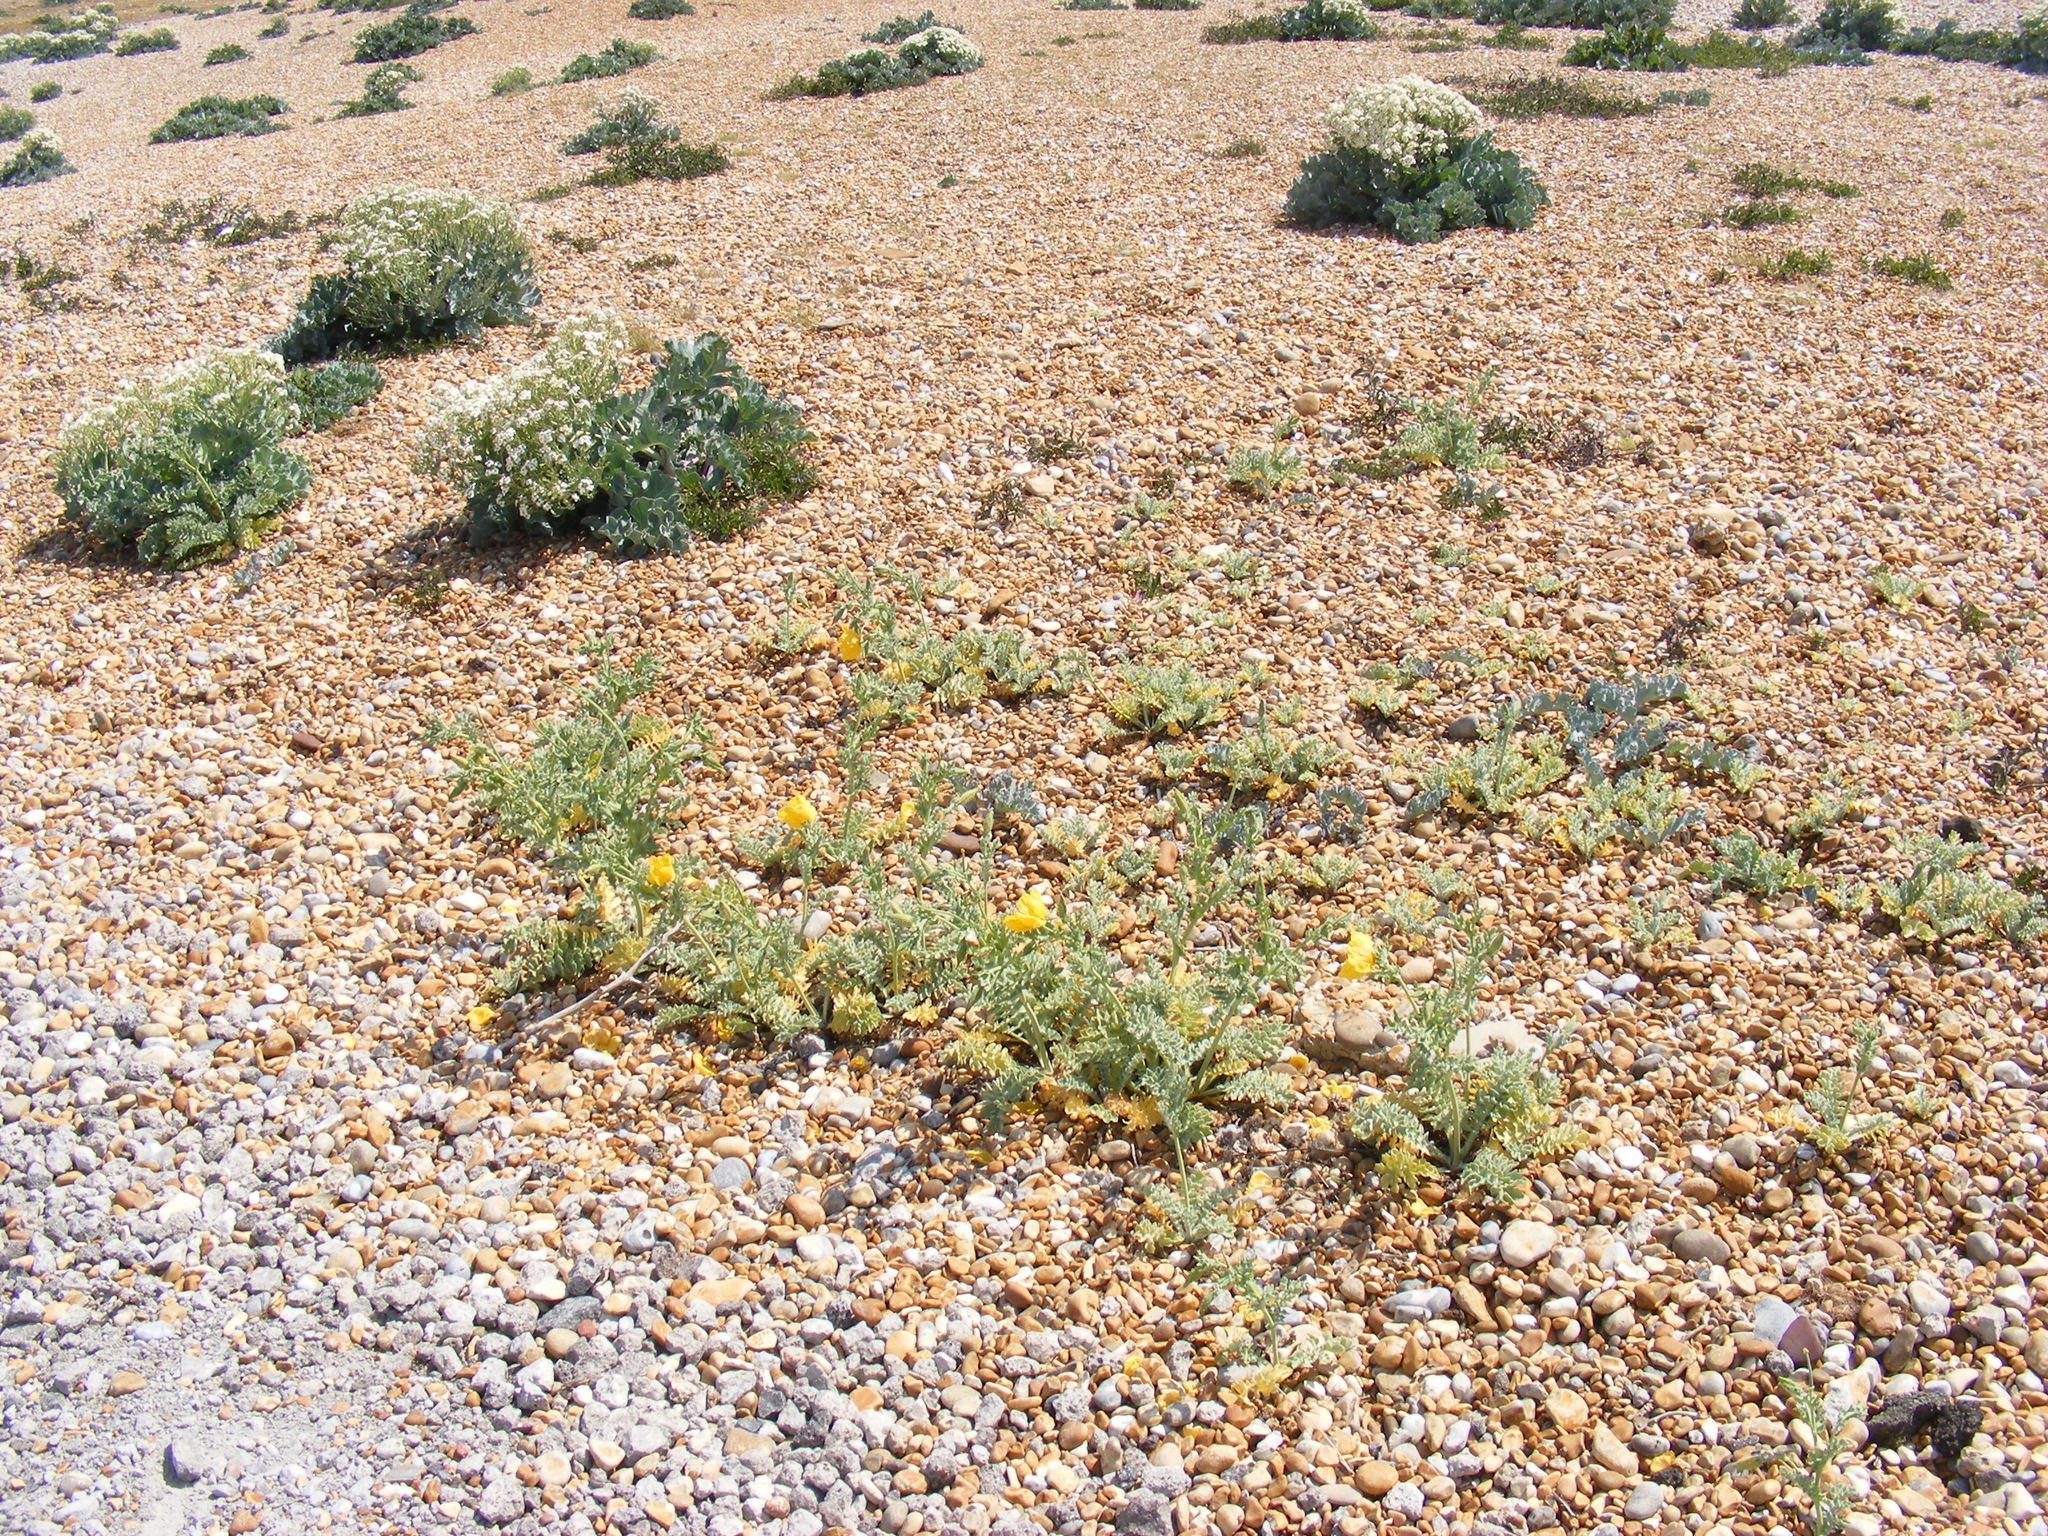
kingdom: Plantae
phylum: Tracheophyta
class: Magnoliopsida
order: Ranunculales
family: Papaveraceae
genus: Glaucium
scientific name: Glaucium flavum
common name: Yellow horned-poppy
